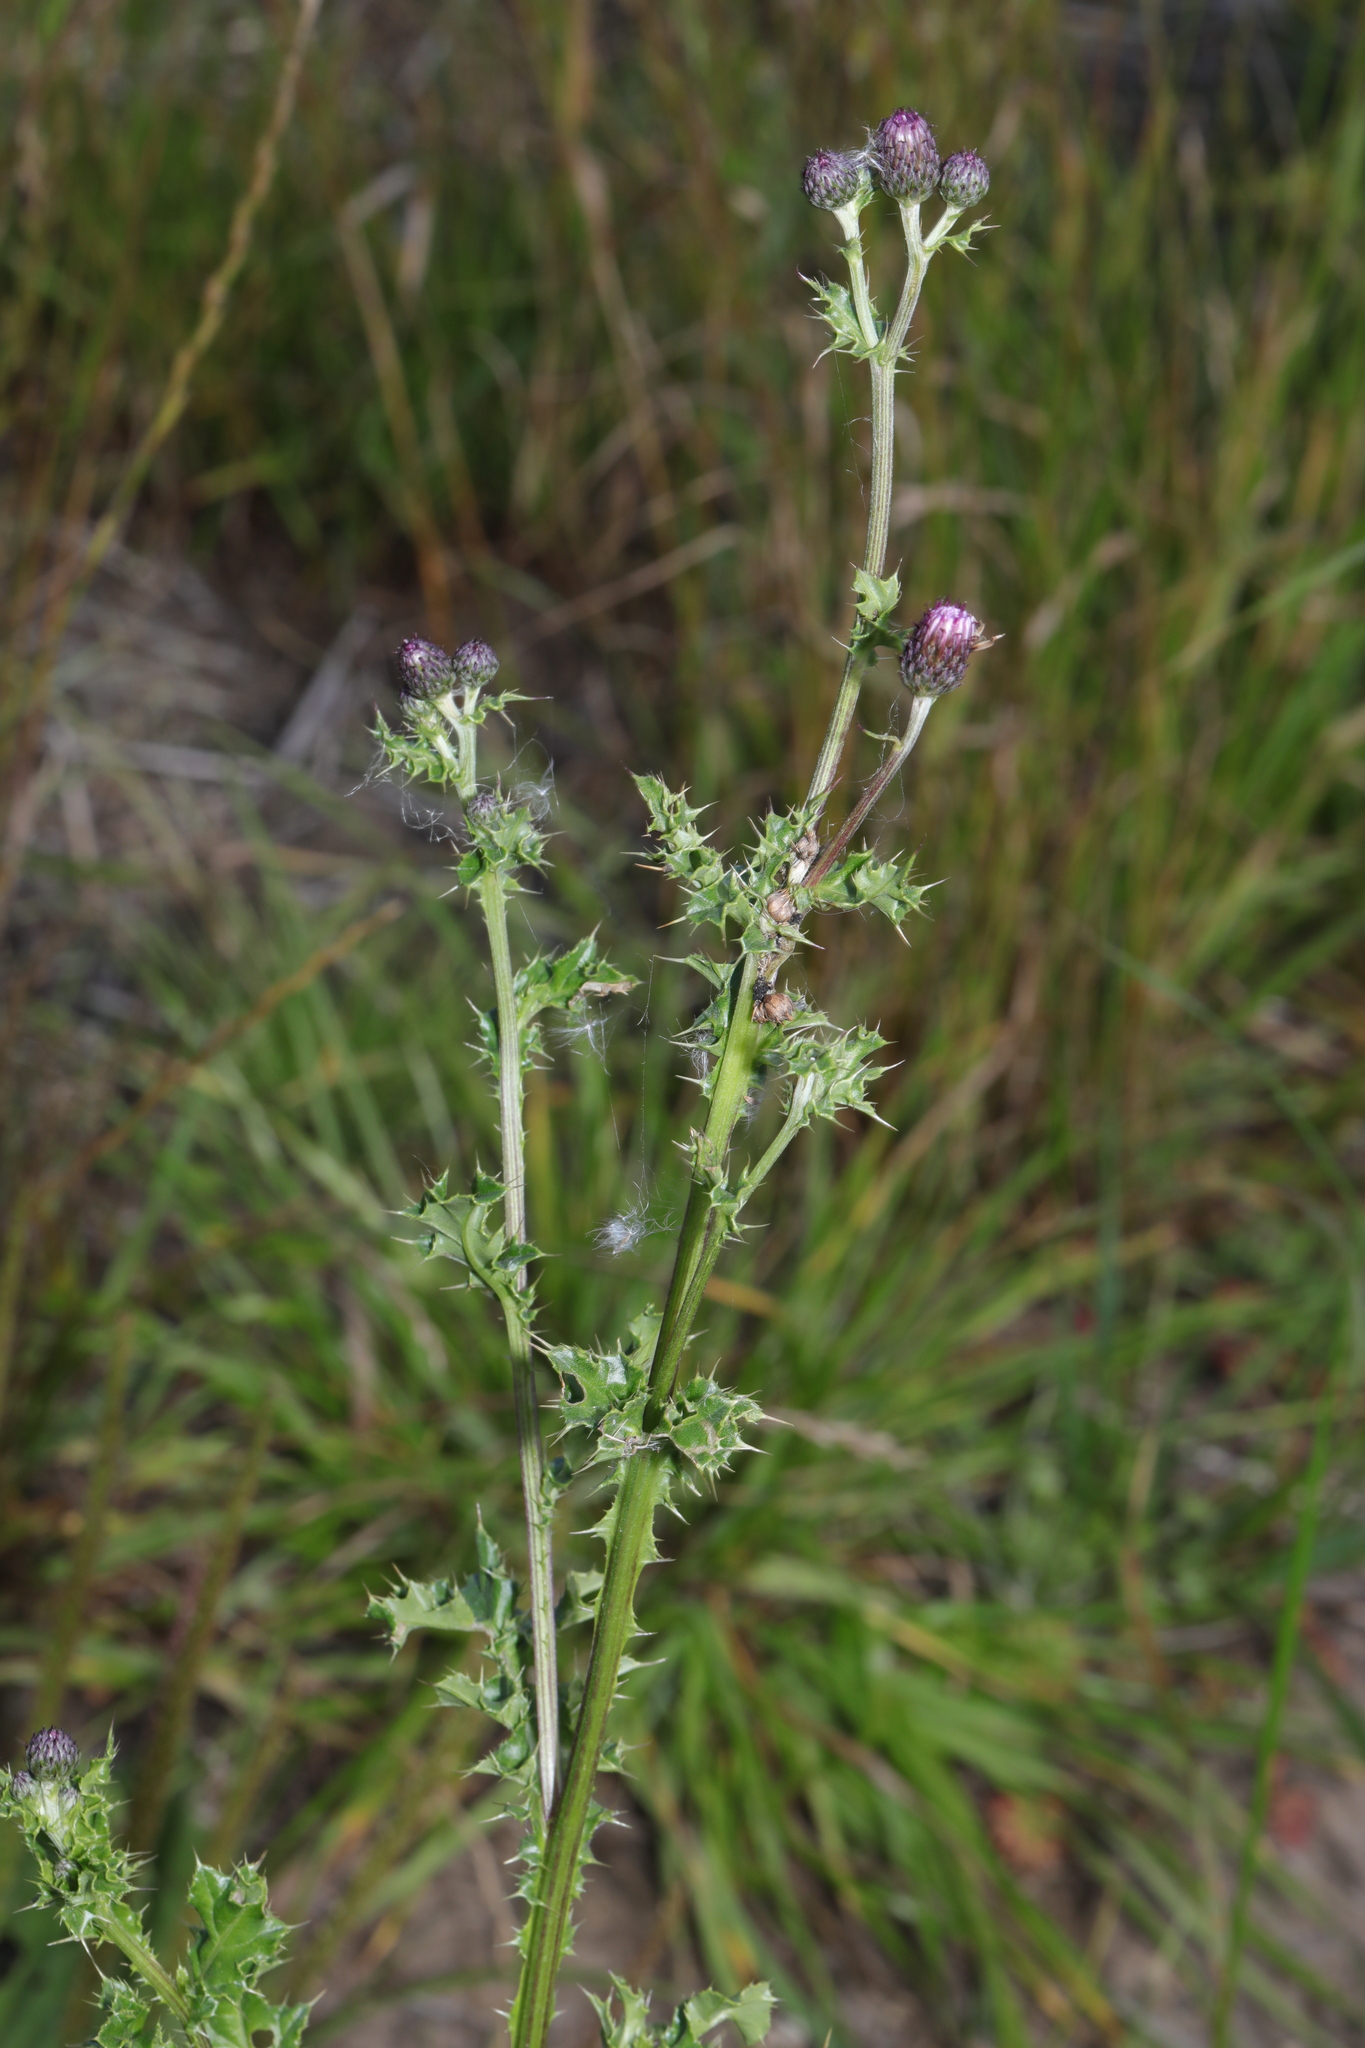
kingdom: Plantae
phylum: Tracheophyta
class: Magnoliopsida
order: Asterales
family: Asteraceae
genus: Cirsium
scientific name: Cirsium arvense
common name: Creeping thistle
